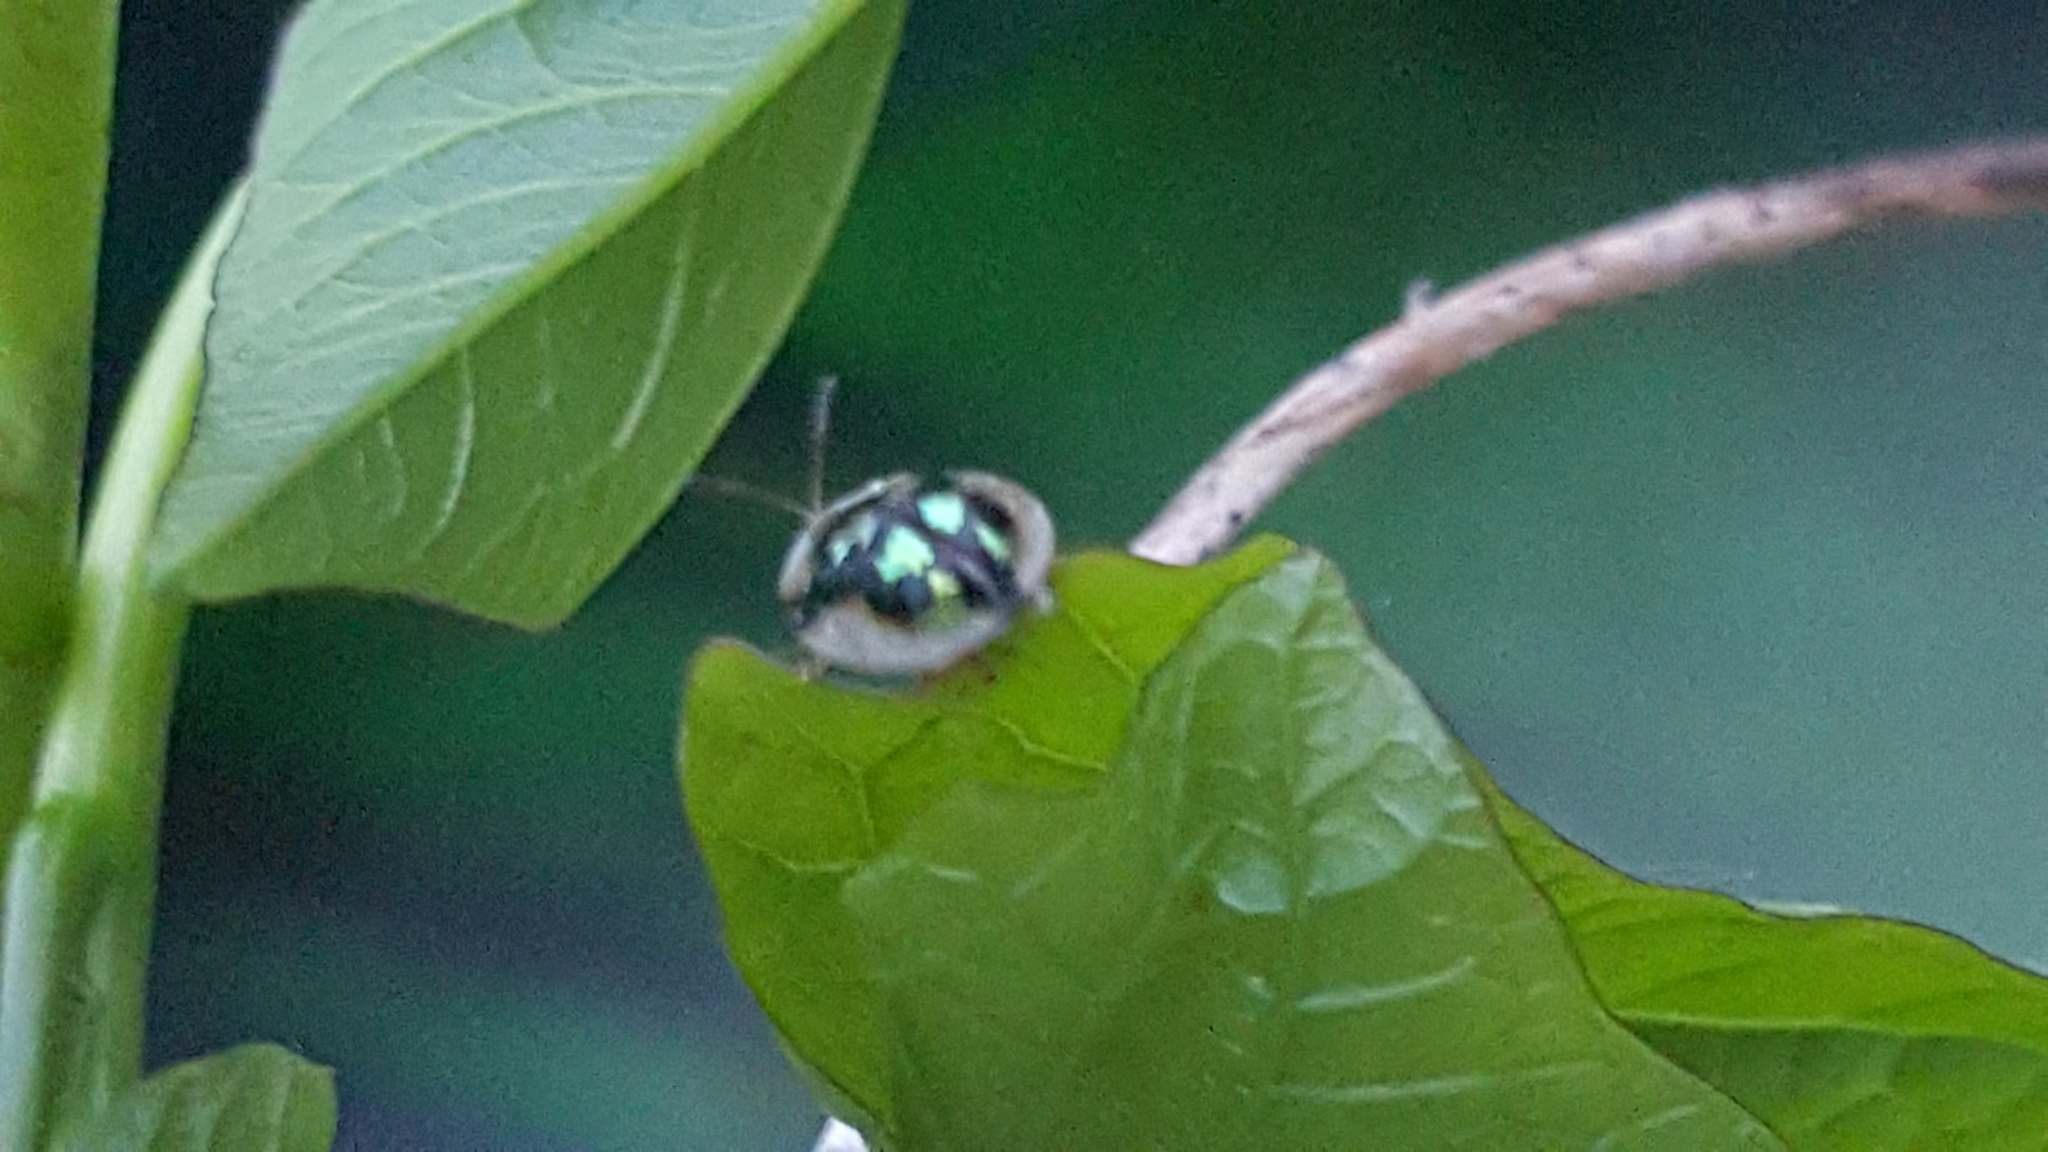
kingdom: Animalia
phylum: Arthropoda
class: Insecta
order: Coleoptera
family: Chrysomelidae
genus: Deloyala
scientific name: Deloyala guttata
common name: Mottled tortoise beetle
